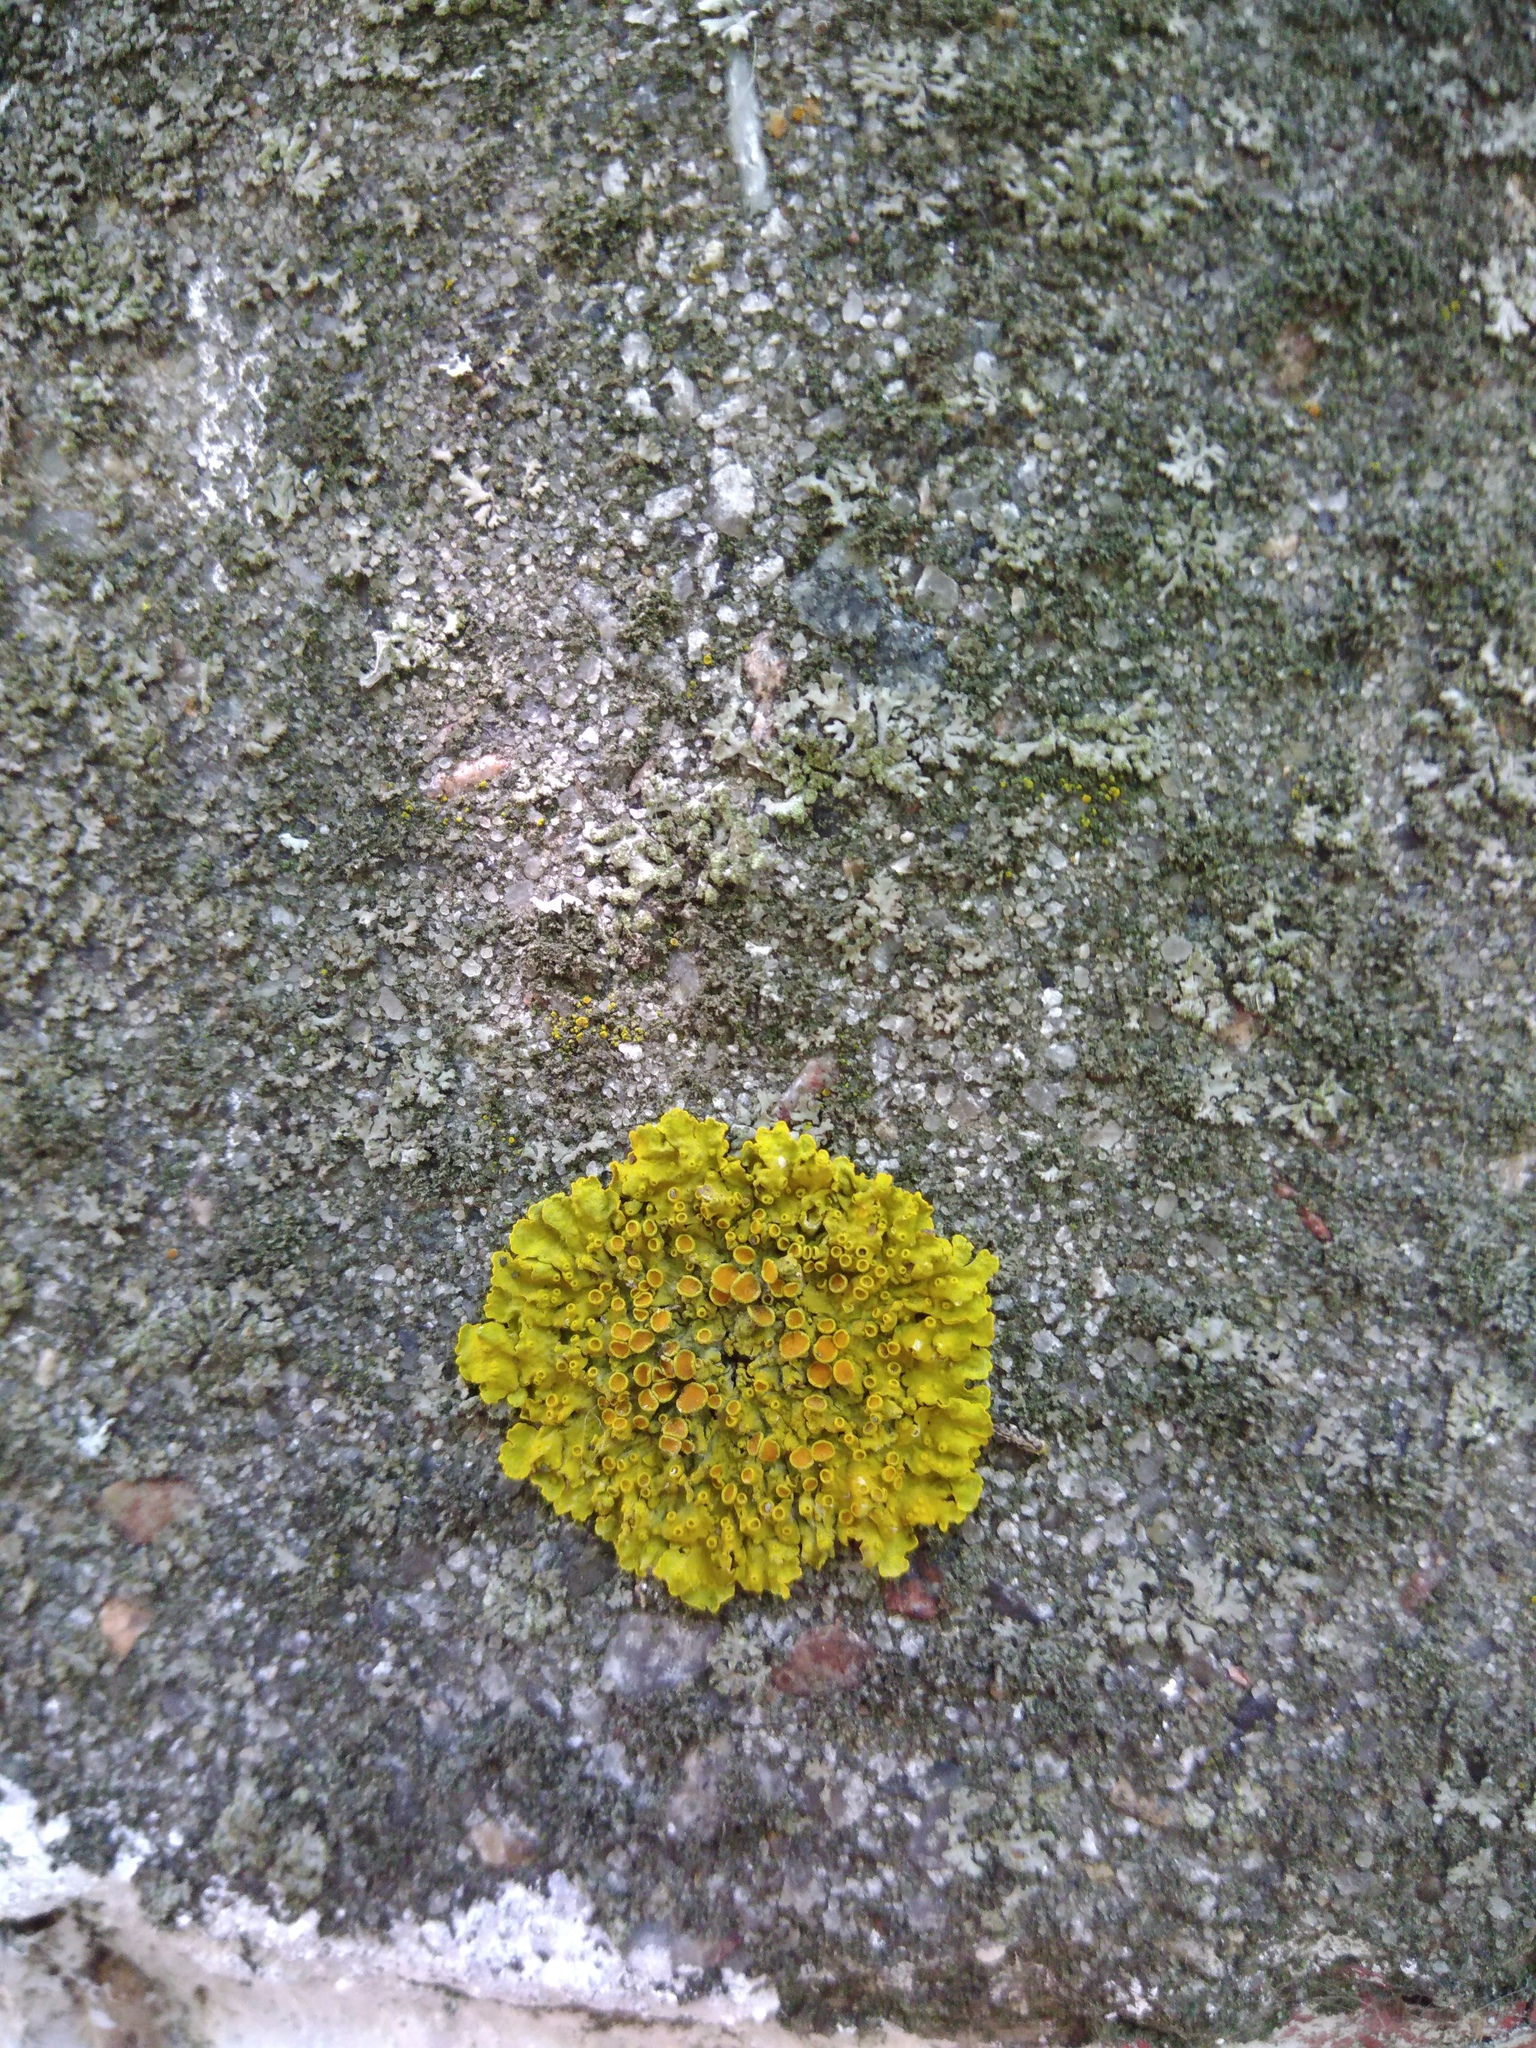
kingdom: Fungi
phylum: Ascomycota
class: Lecanoromycetes
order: Teloschistales
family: Teloschistaceae
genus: Xanthoria
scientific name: Xanthoria parietina
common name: Common orange lichen
